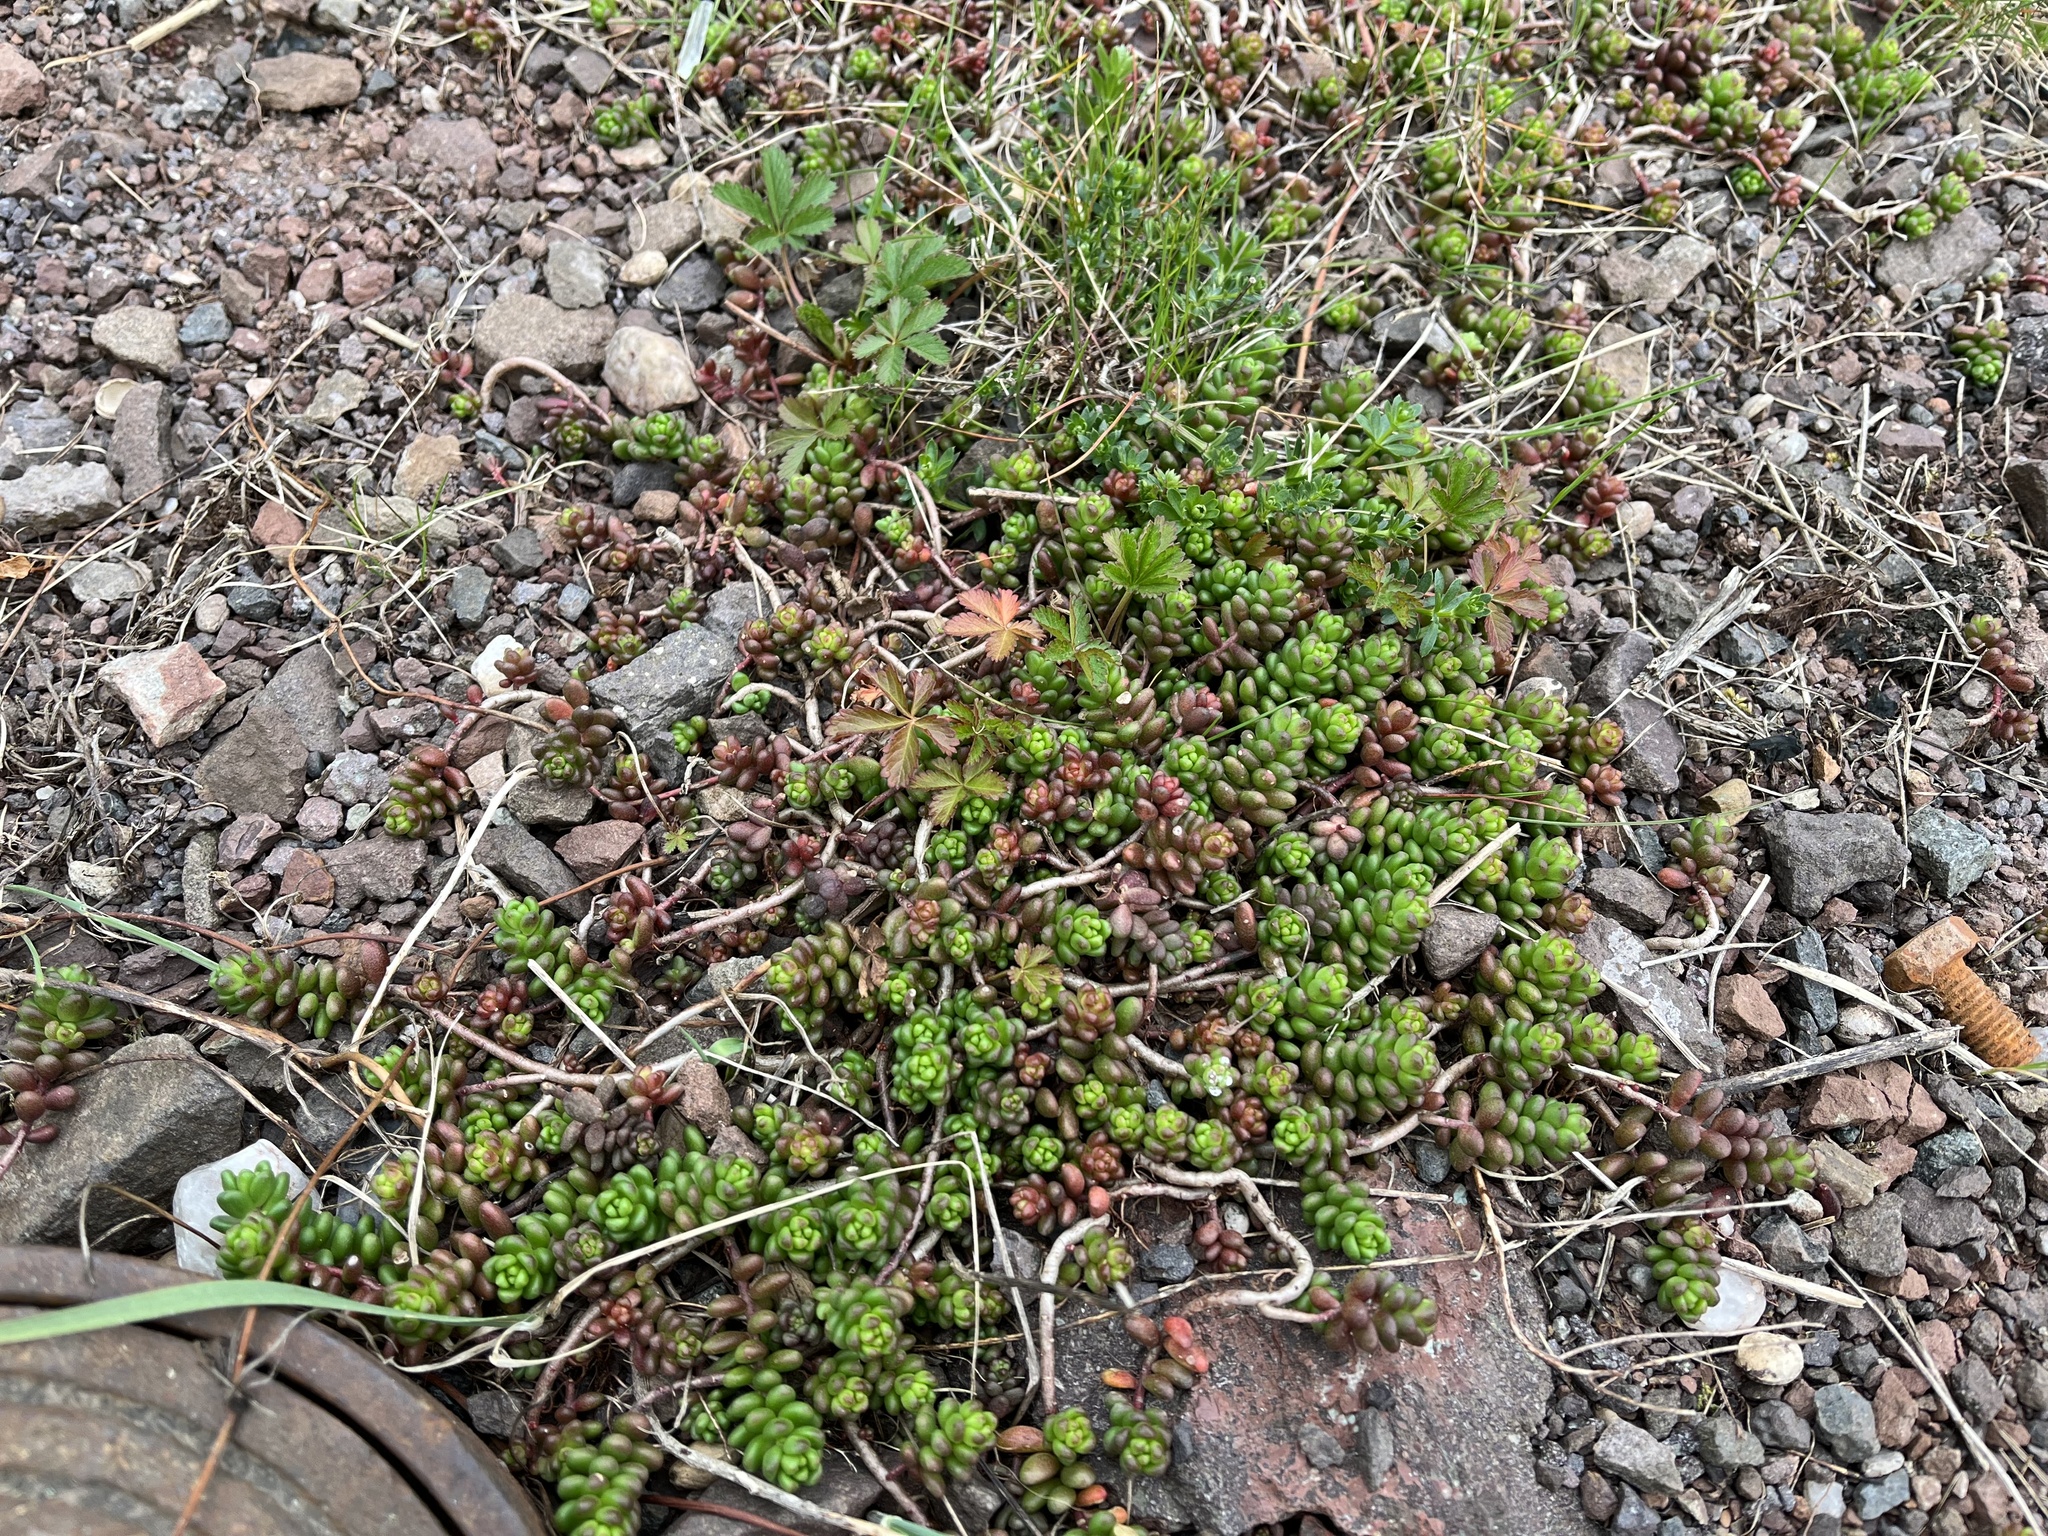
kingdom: Plantae
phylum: Tracheophyta
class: Magnoliopsida
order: Saxifragales
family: Crassulaceae
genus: Sedum
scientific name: Sedum album
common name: White stonecrop
